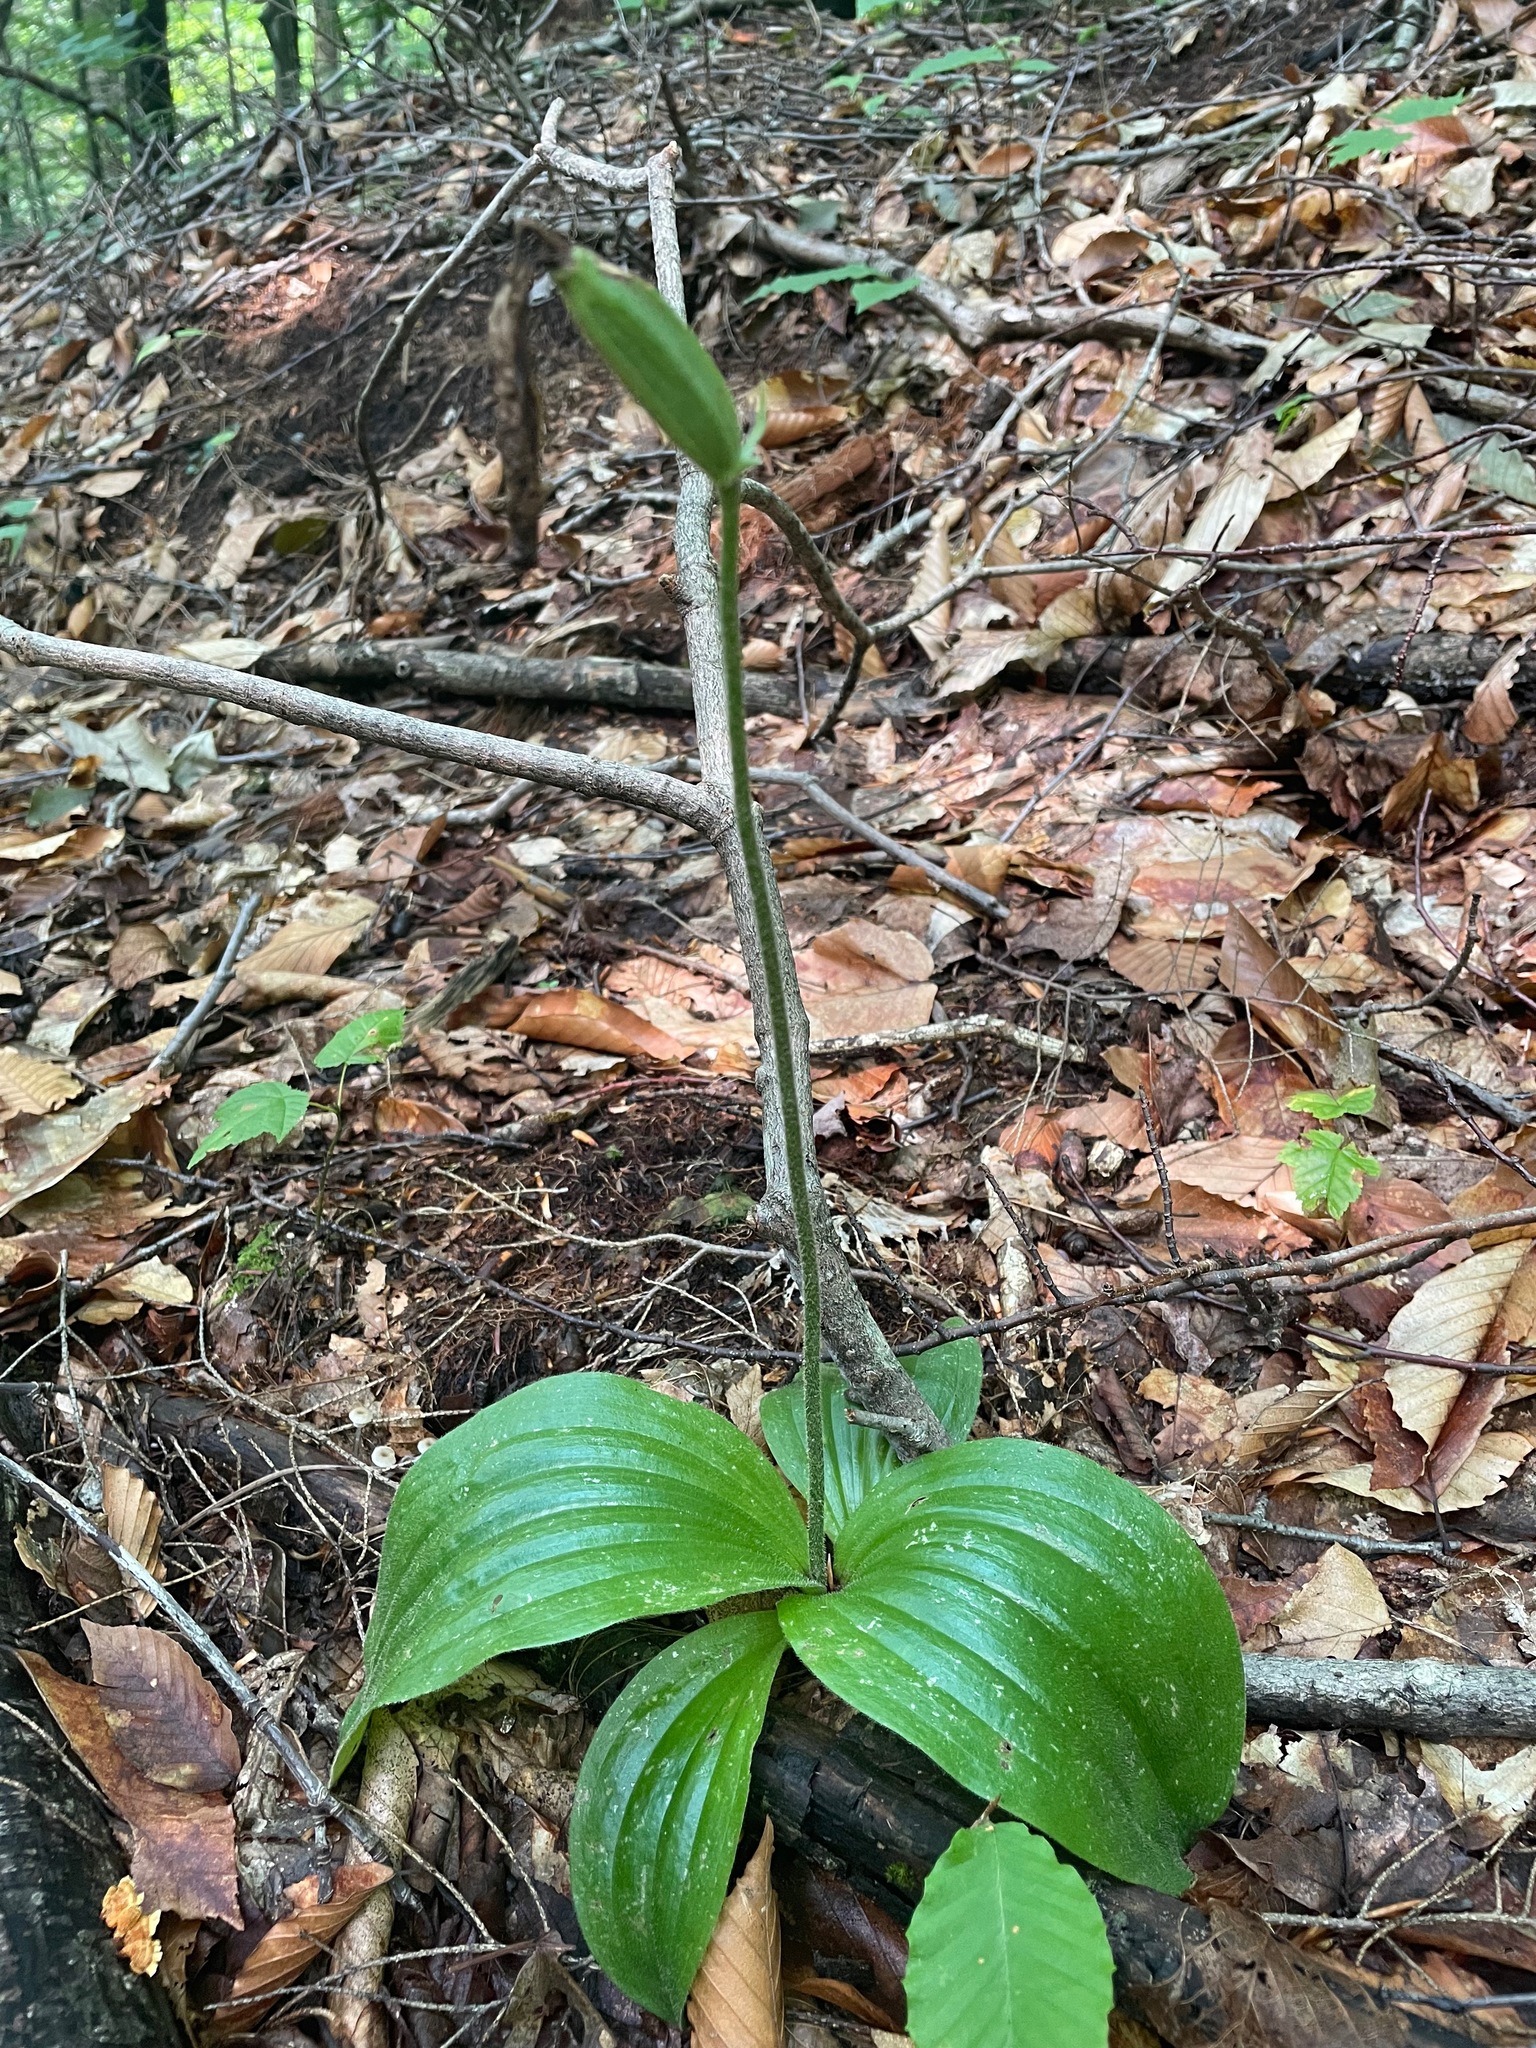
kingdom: Plantae
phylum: Tracheophyta
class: Liliopsida
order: Asparagales
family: Orchidaceae
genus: Cypripedium
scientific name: Cypripedium acaule
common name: Pink lady's-slipper
